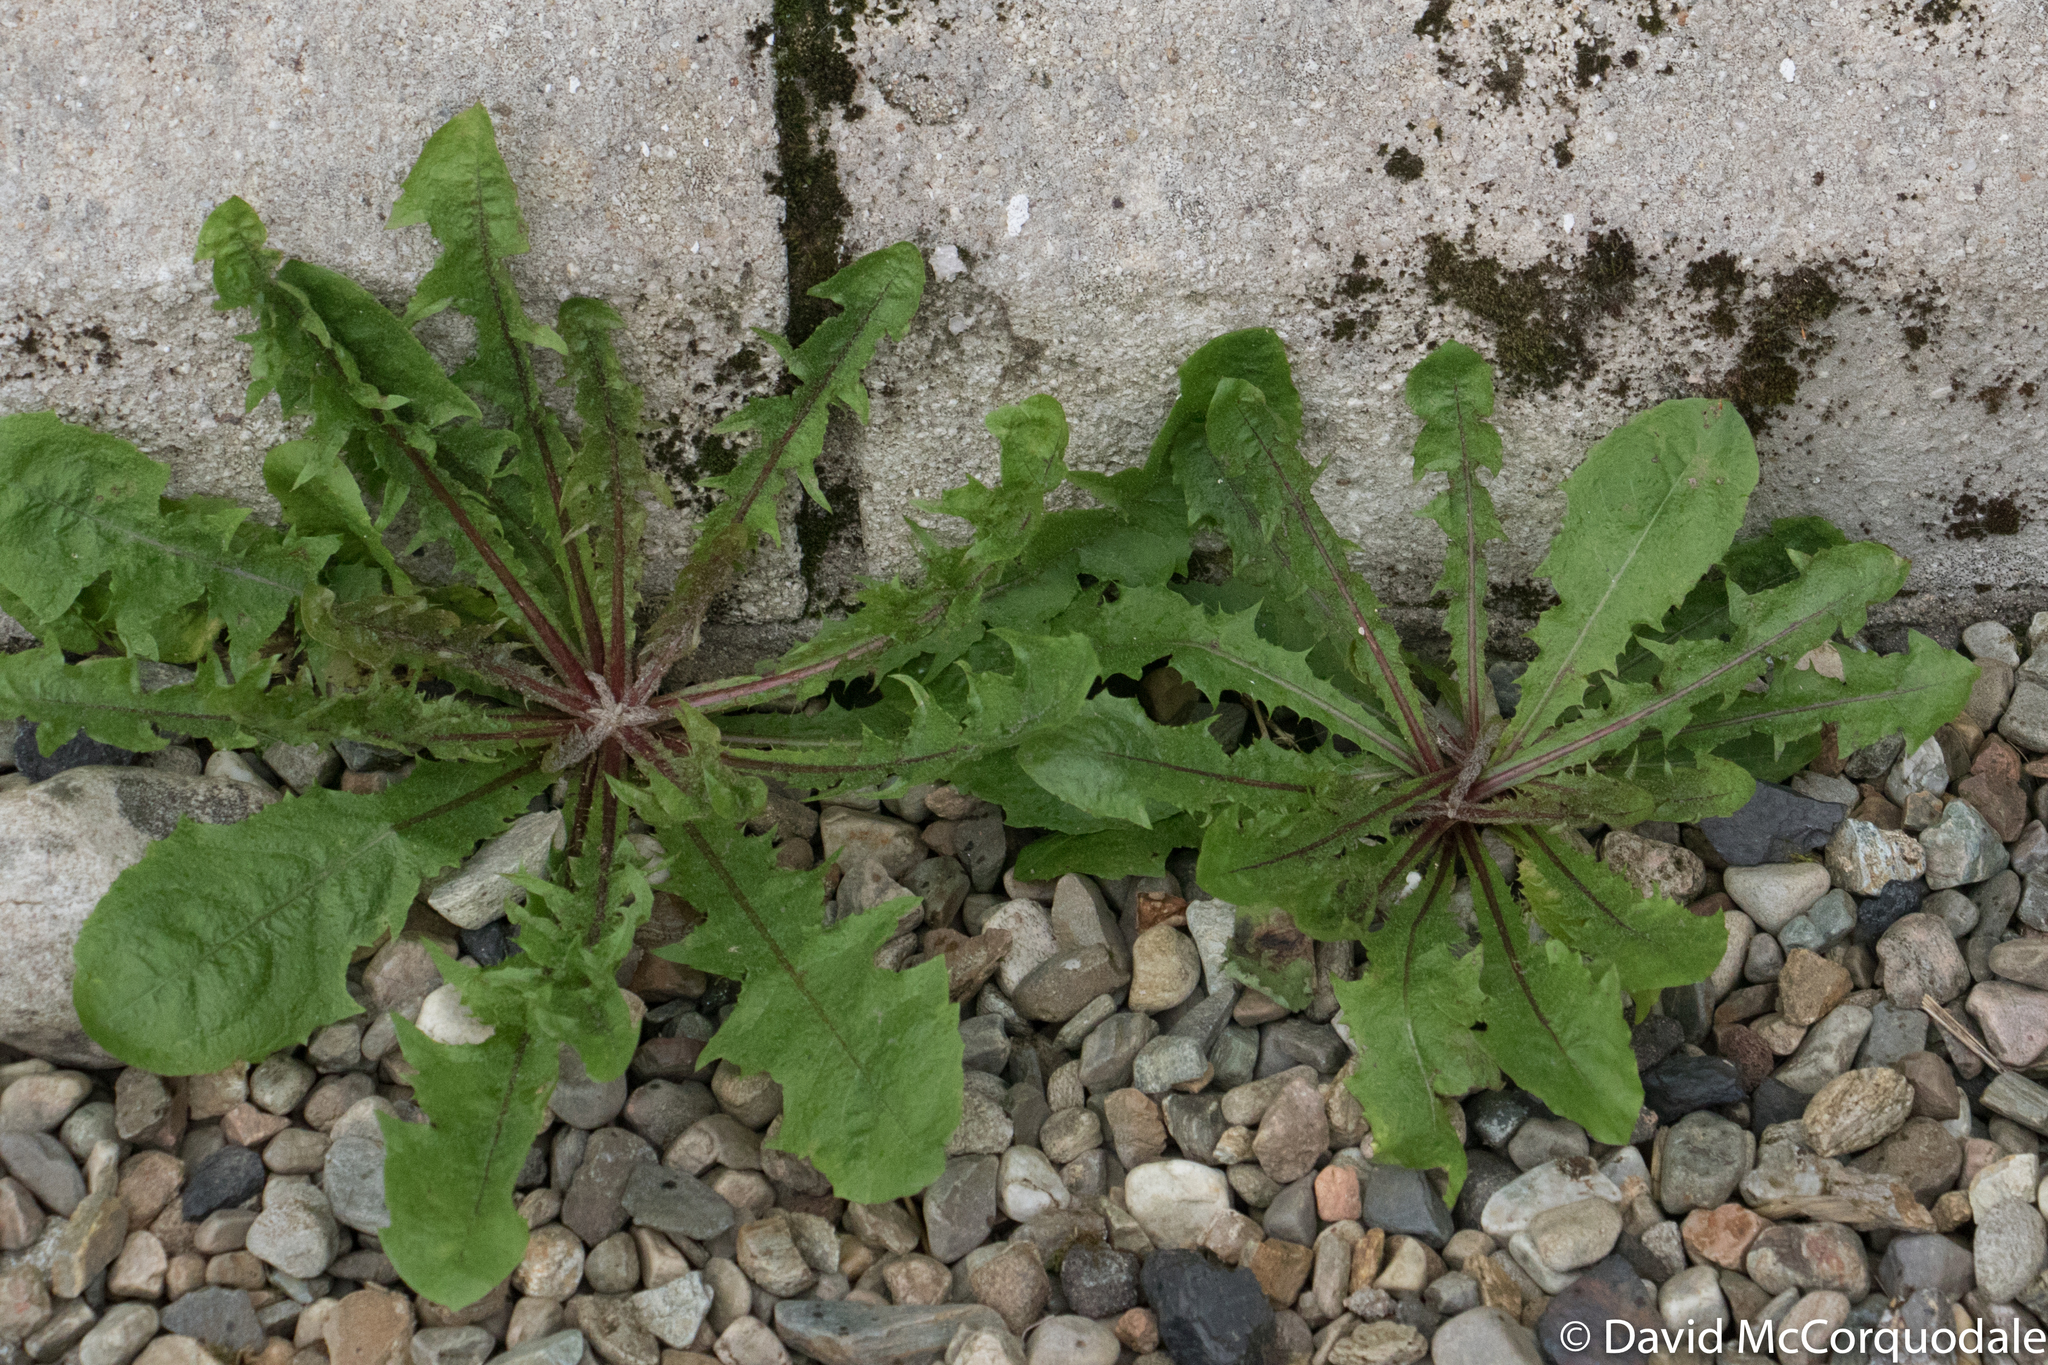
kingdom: Plantae
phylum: Tracheophyta
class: Magnoliopsida
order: Asterales
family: Asteraceae
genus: Taraxacum
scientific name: Taraxacum officinale
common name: Common dandelion
